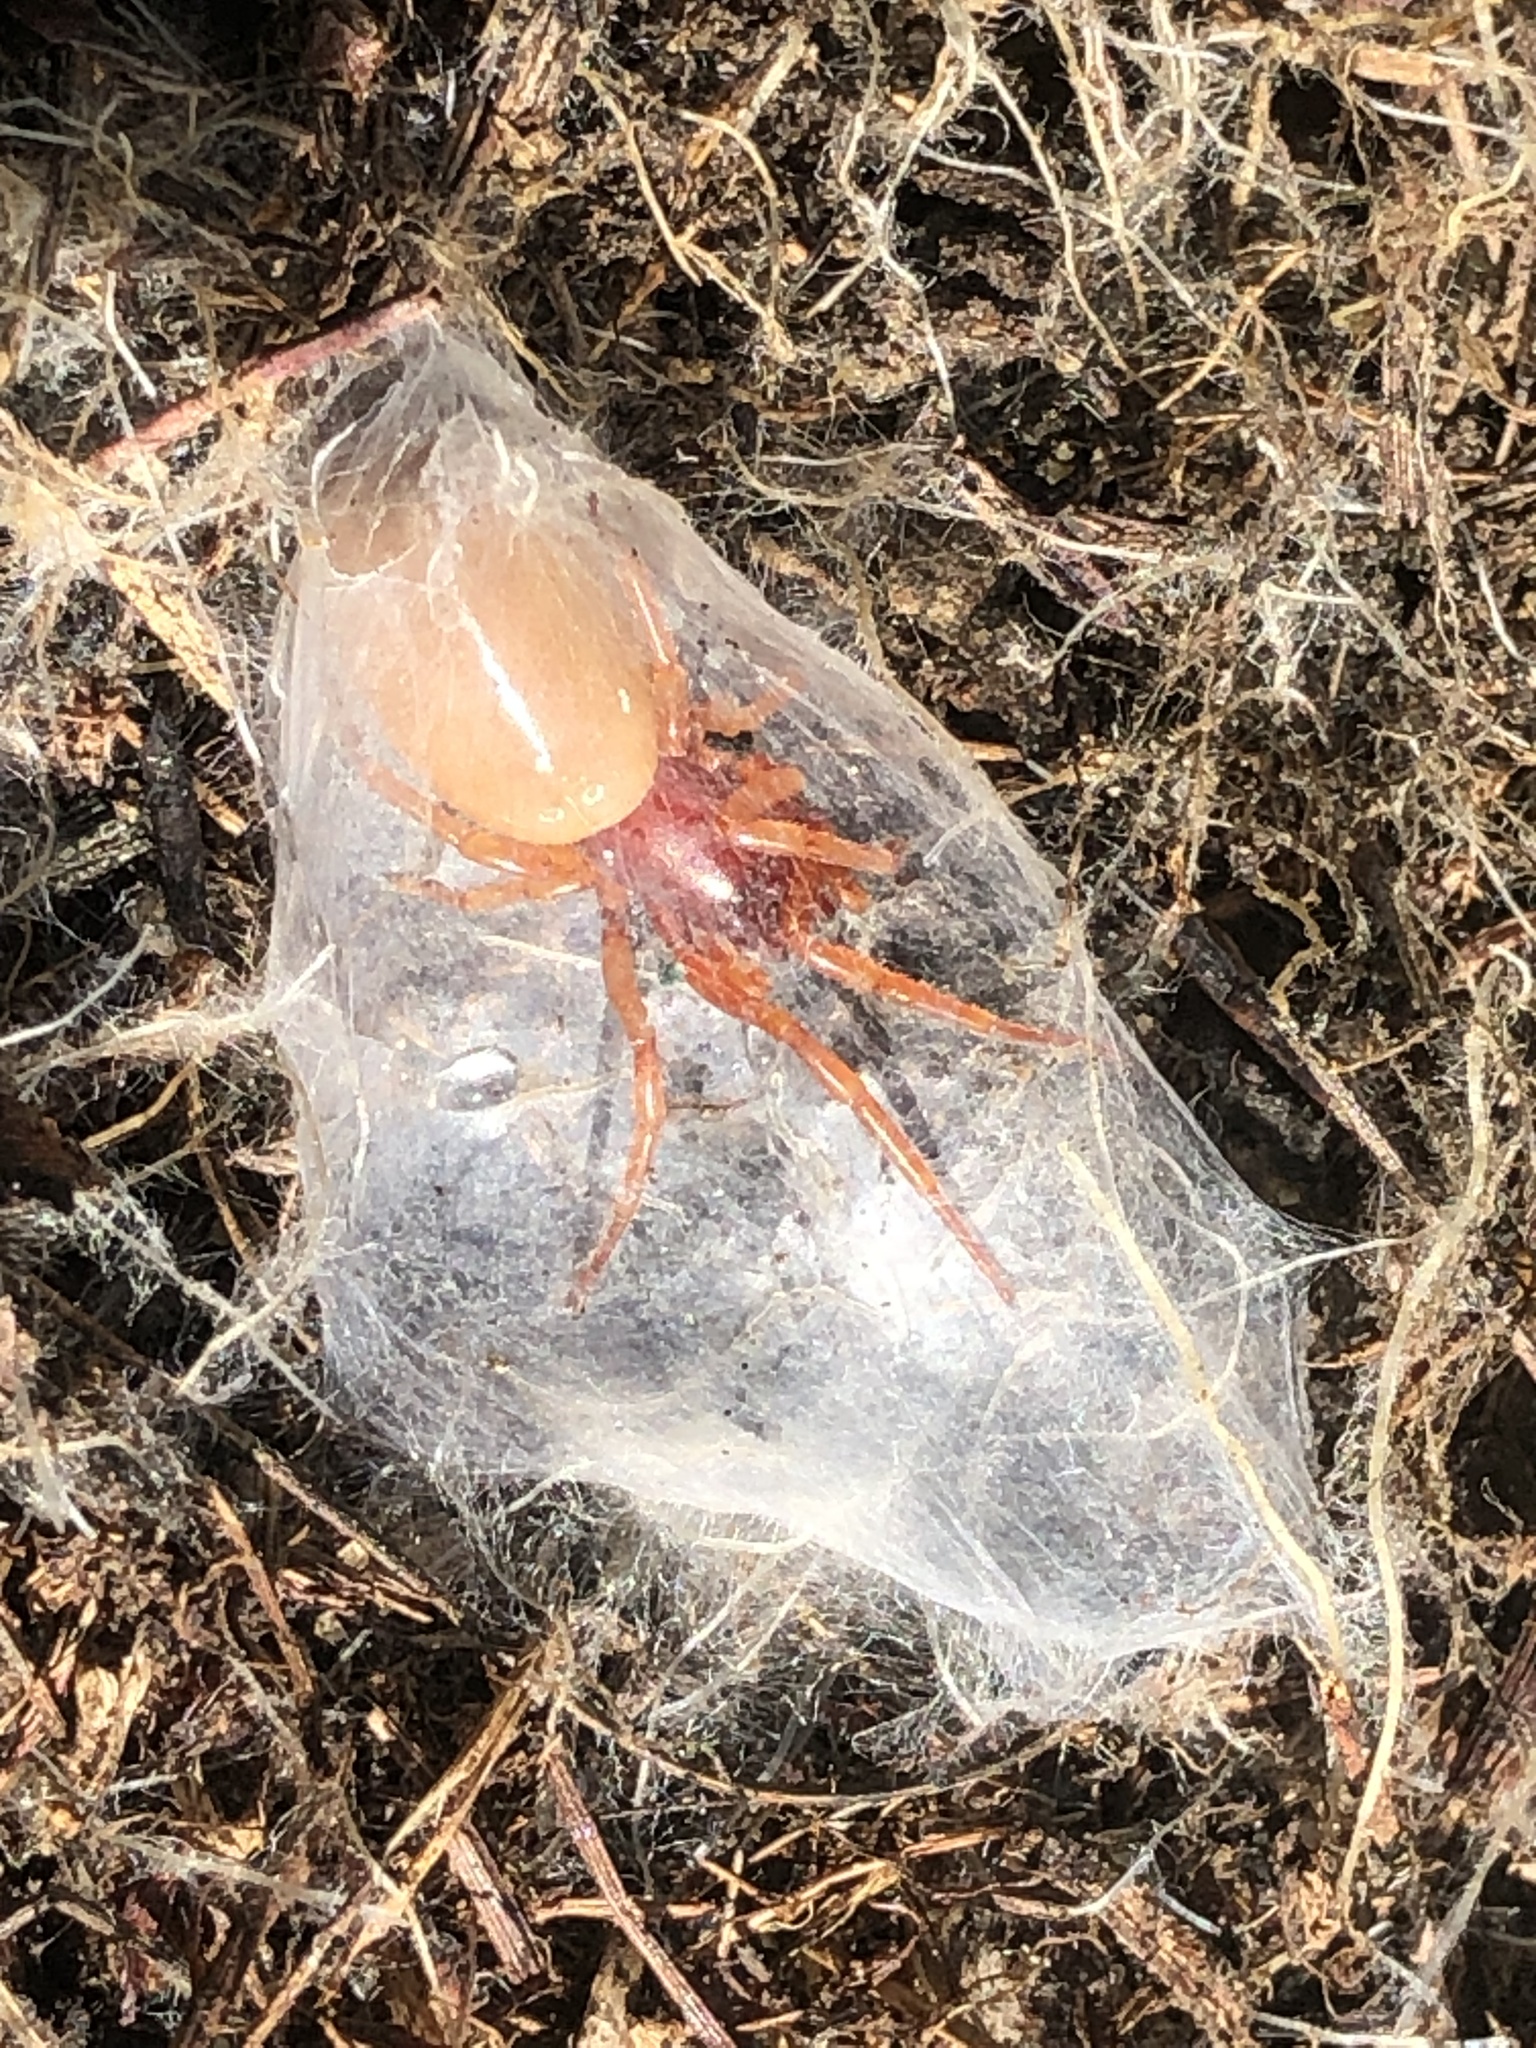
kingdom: Animalia
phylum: Arthropoda
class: Arachnida
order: Araneae
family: Dysderidae
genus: Dysdera
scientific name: Dysdera crocata
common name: Woodlouse spider
